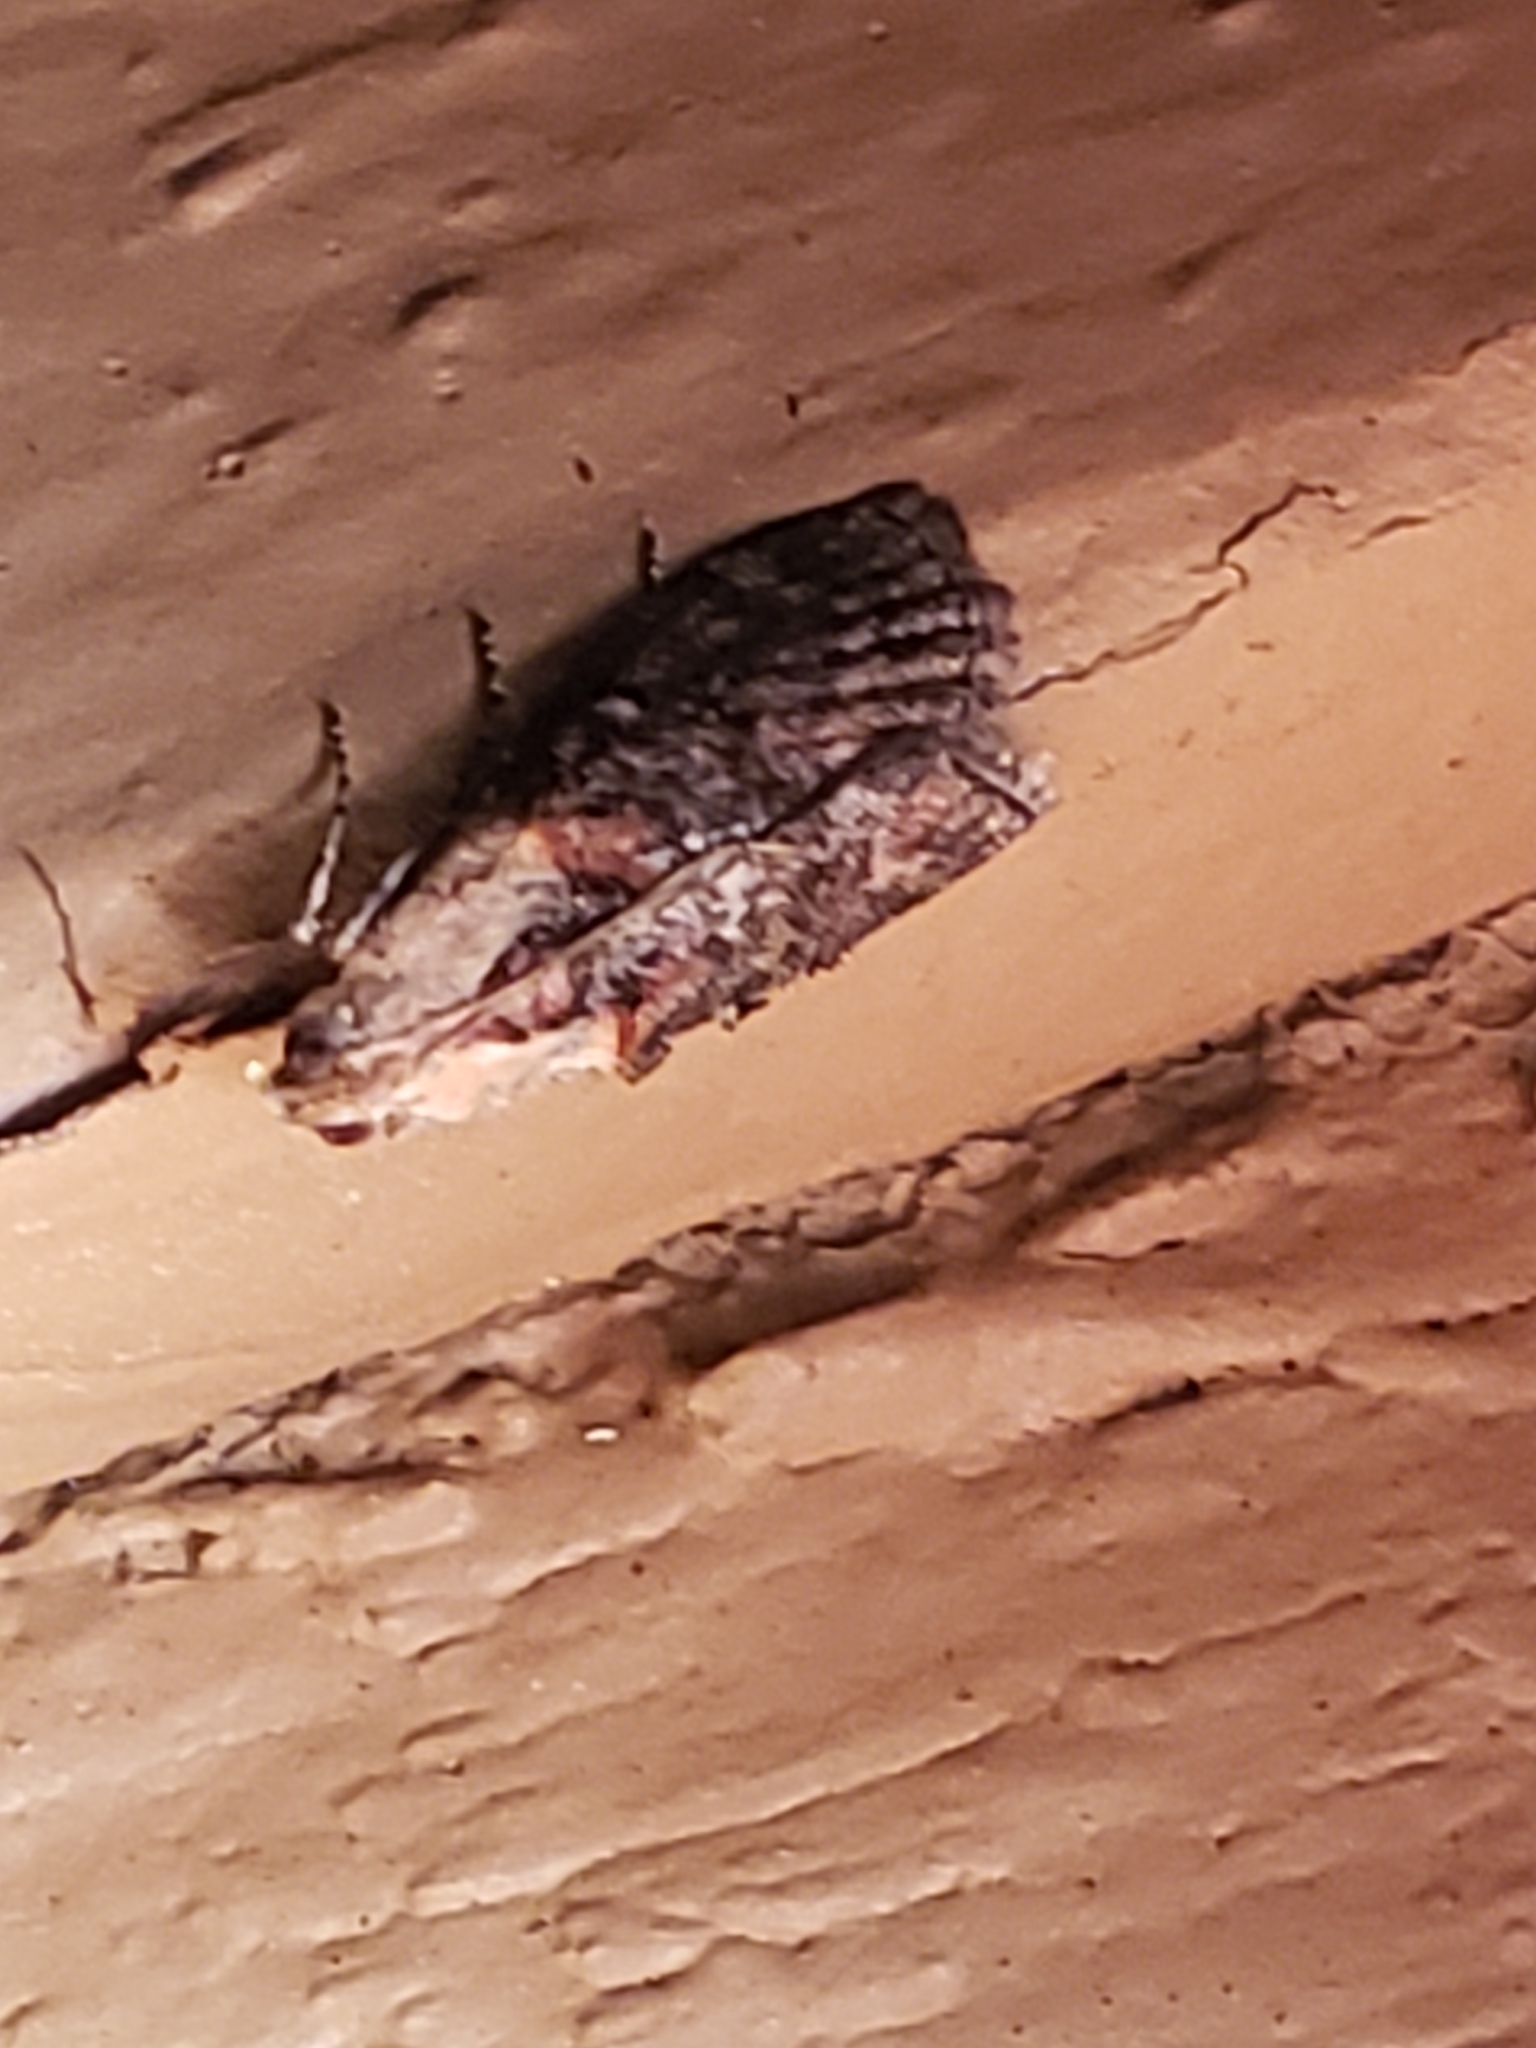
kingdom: Animalia
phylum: Arthropoda
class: Insecta
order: Lepidoptera
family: Pyralidae
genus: Pococera
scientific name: Pococera expandens
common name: Striped oak webworm moth
